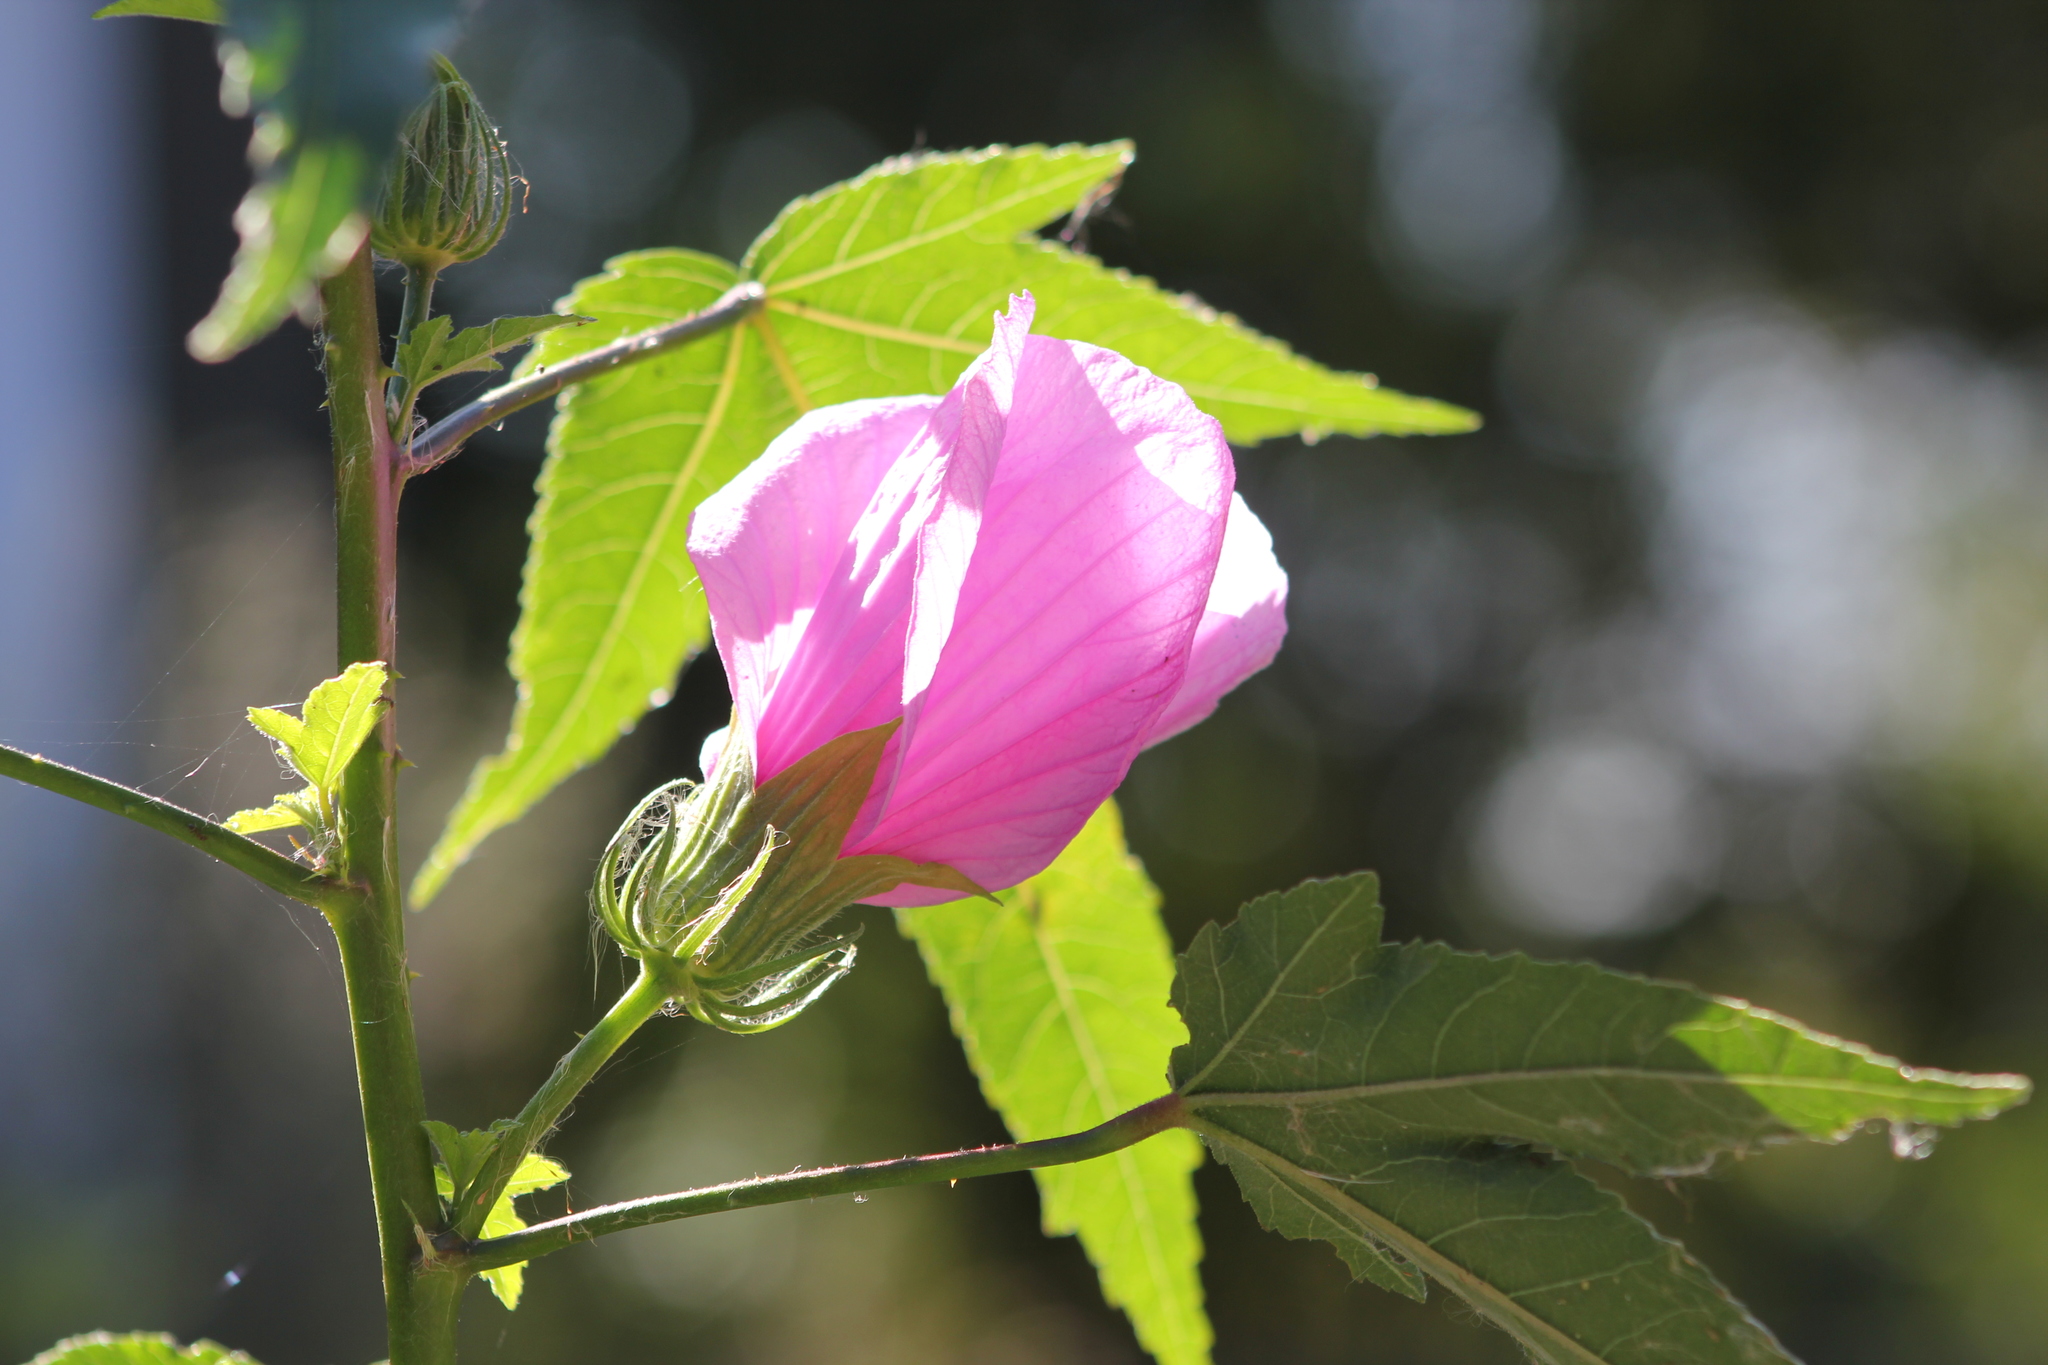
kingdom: Plantae
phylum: Tracheophyta
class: Magnoliopsida
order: Malvales
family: Malvaceae
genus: Hibiscus
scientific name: Hibiscus striatus
